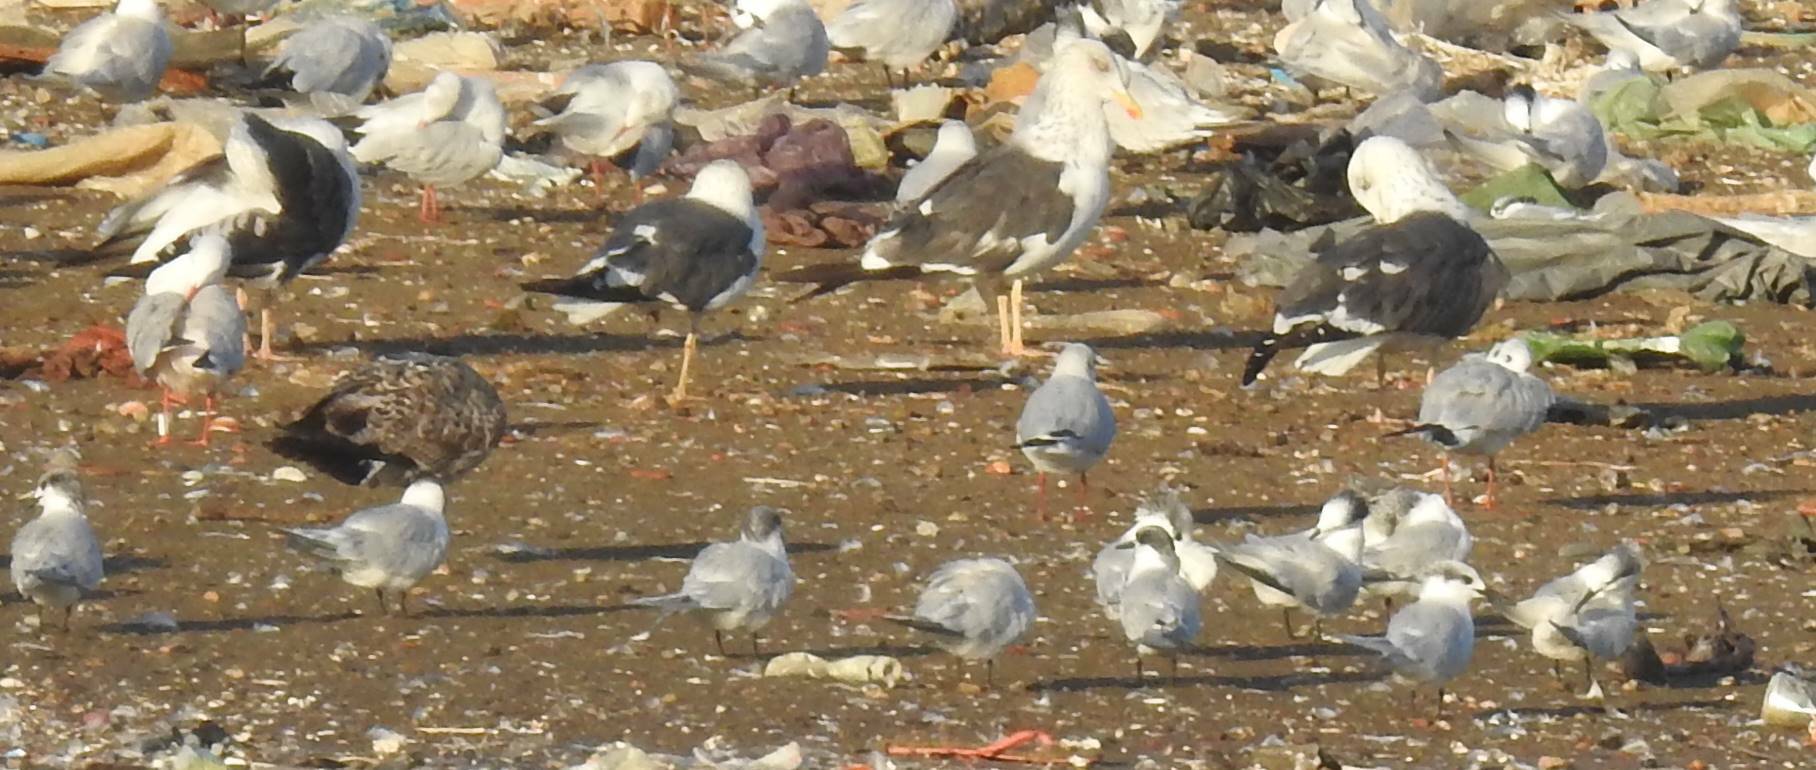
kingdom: Animalia
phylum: Chordata
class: Aves
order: Charadriiformes
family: Laridae
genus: Larus
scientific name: Larus fuscus
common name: Lesser black-backed gull
